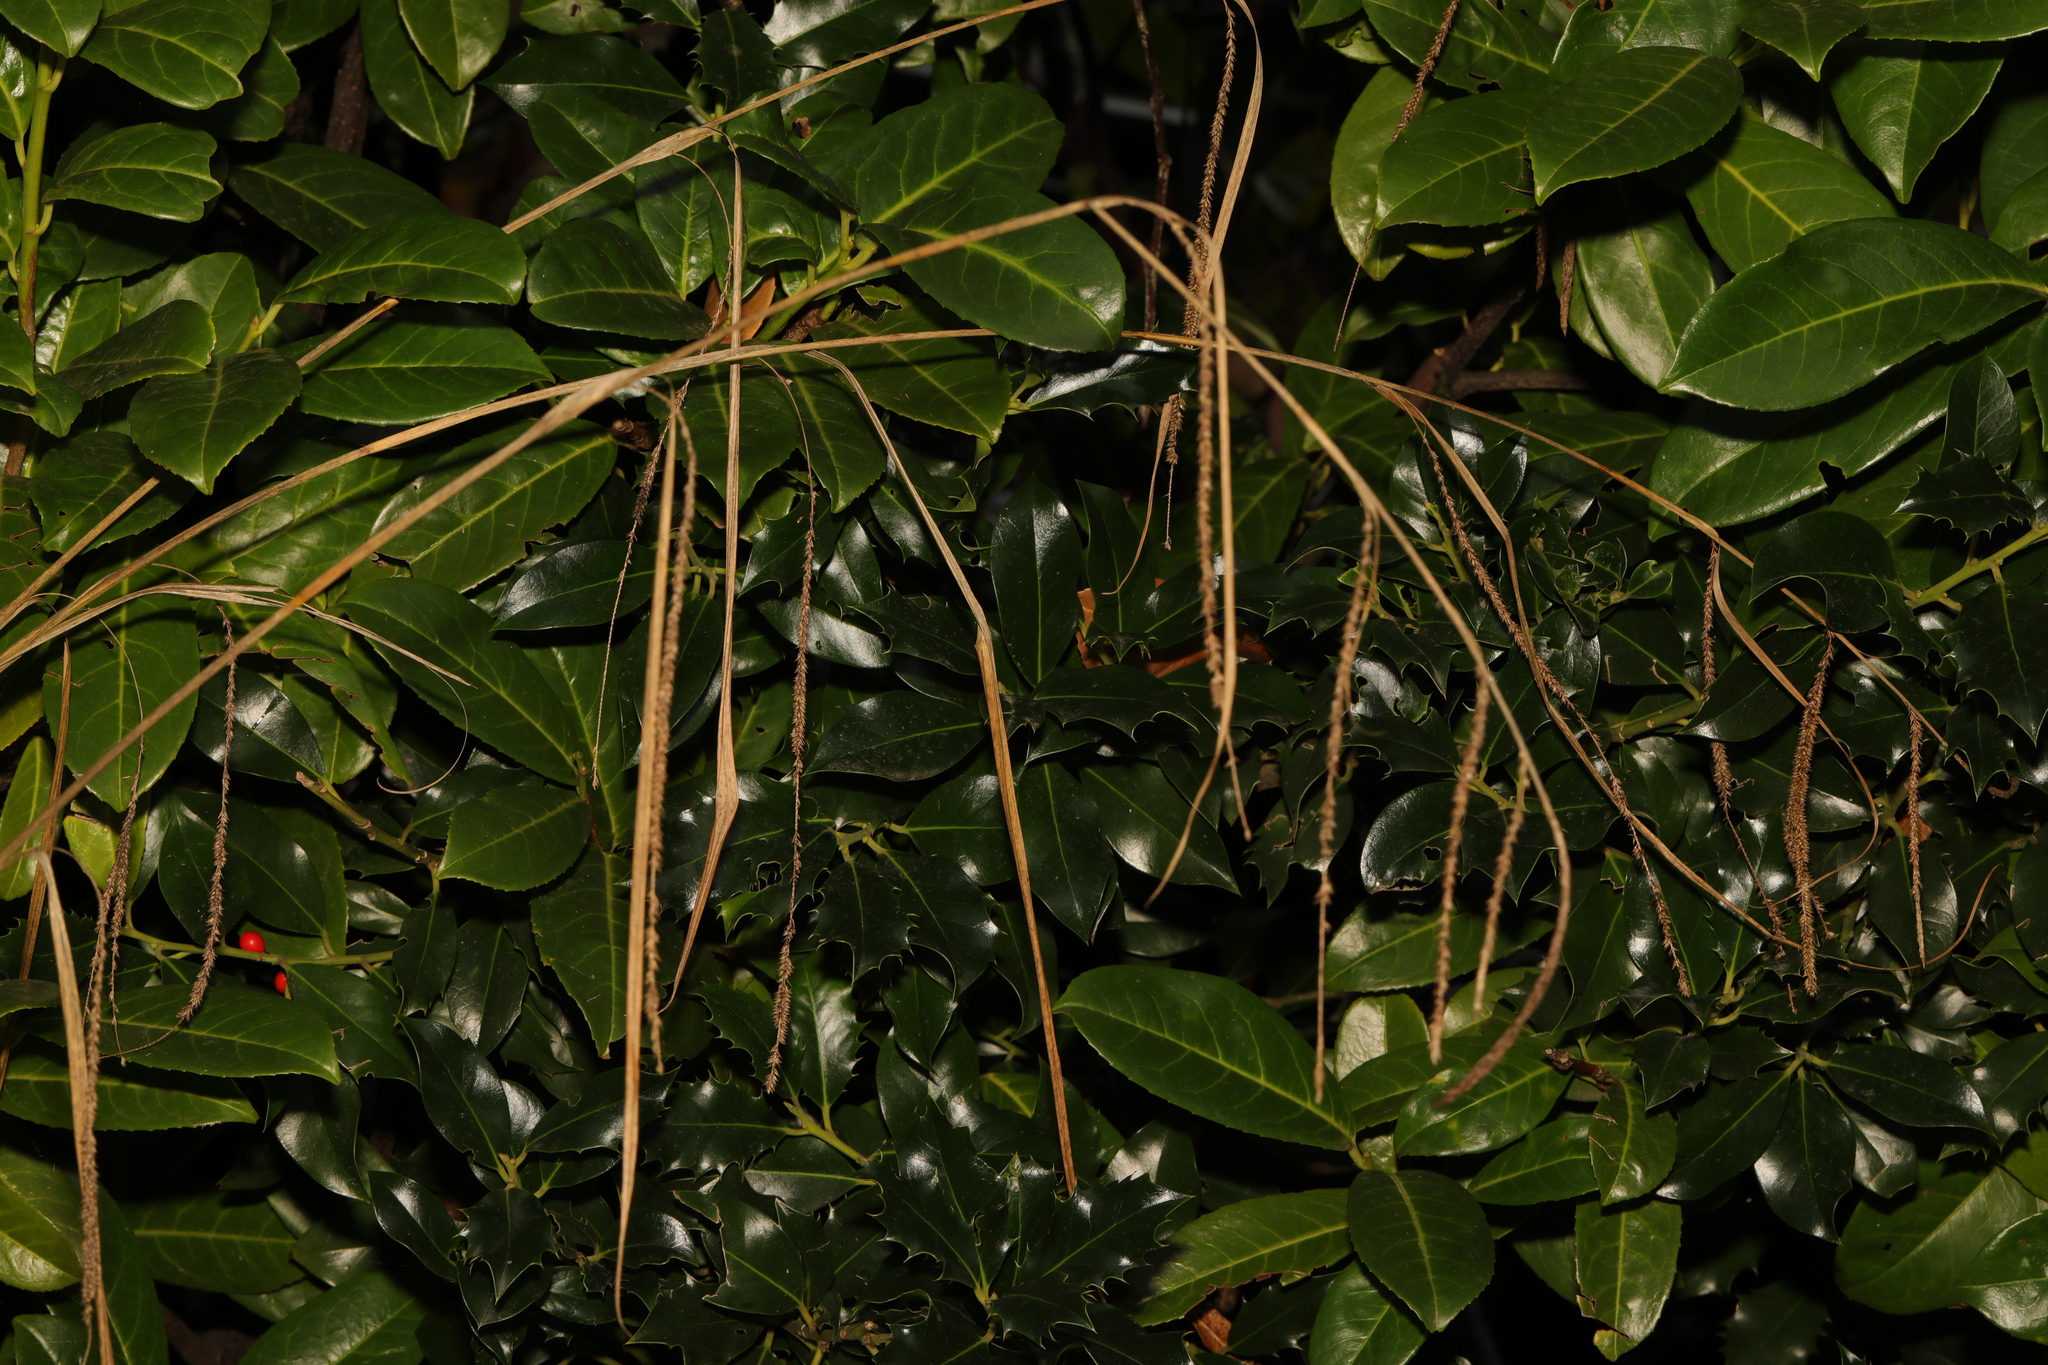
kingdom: Plantae
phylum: Tracheophyta
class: Liliopsida
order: Poales
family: Cyperaceae
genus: Carex
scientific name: Carex pendula
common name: Pendulous sedge
